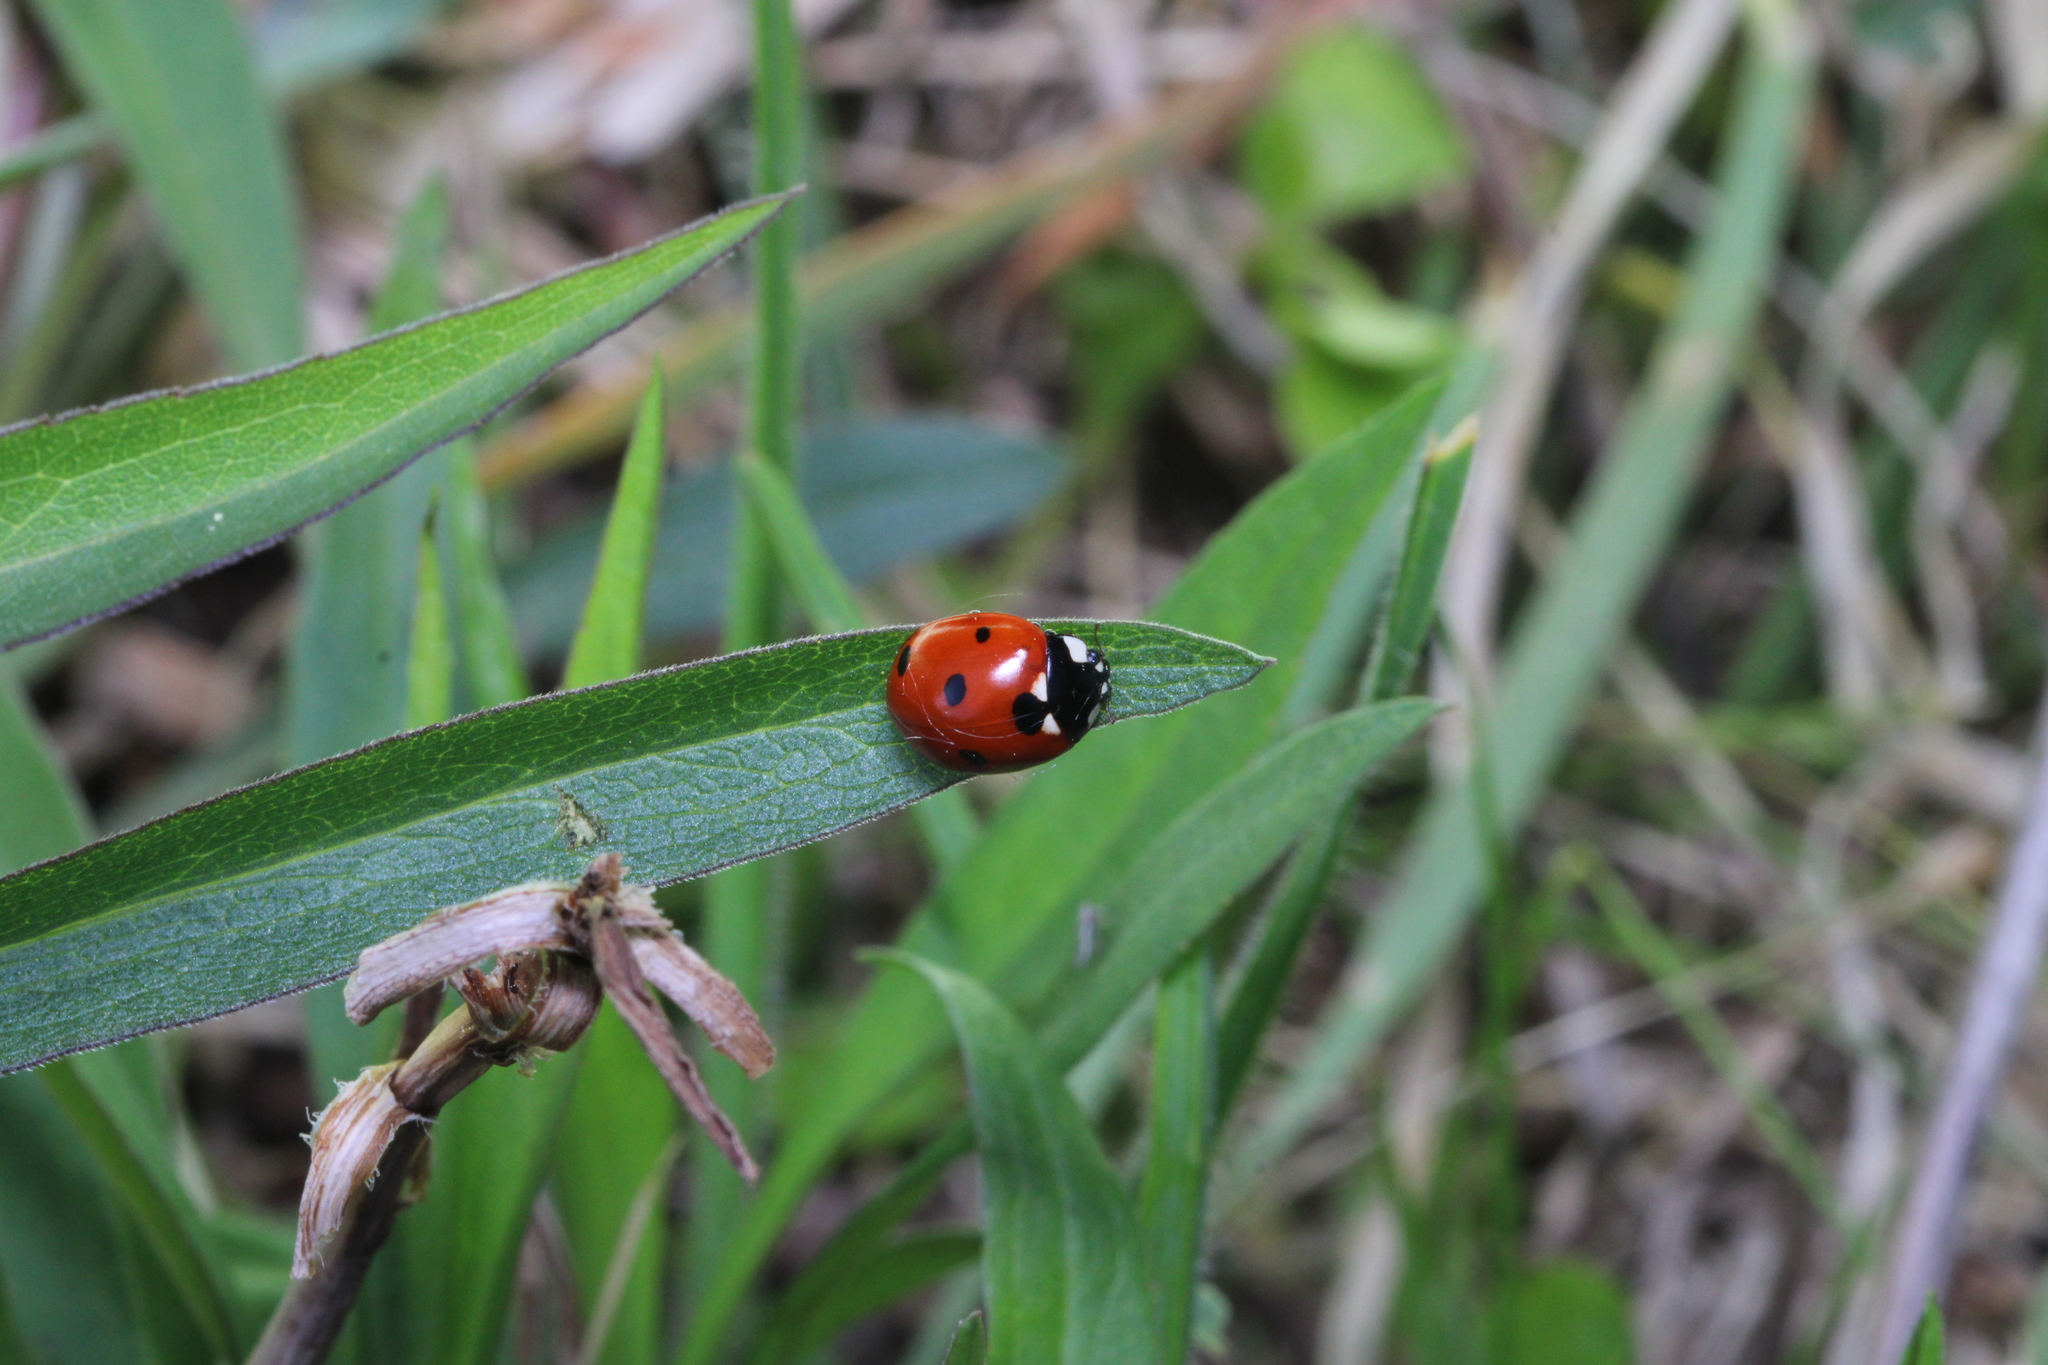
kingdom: Animalia
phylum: Arthropoda
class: Insecta
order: Coleoptera
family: Coccinellidae
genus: Coccinella
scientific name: Coccinella septempunctata
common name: Sevenspotted lady beetle
